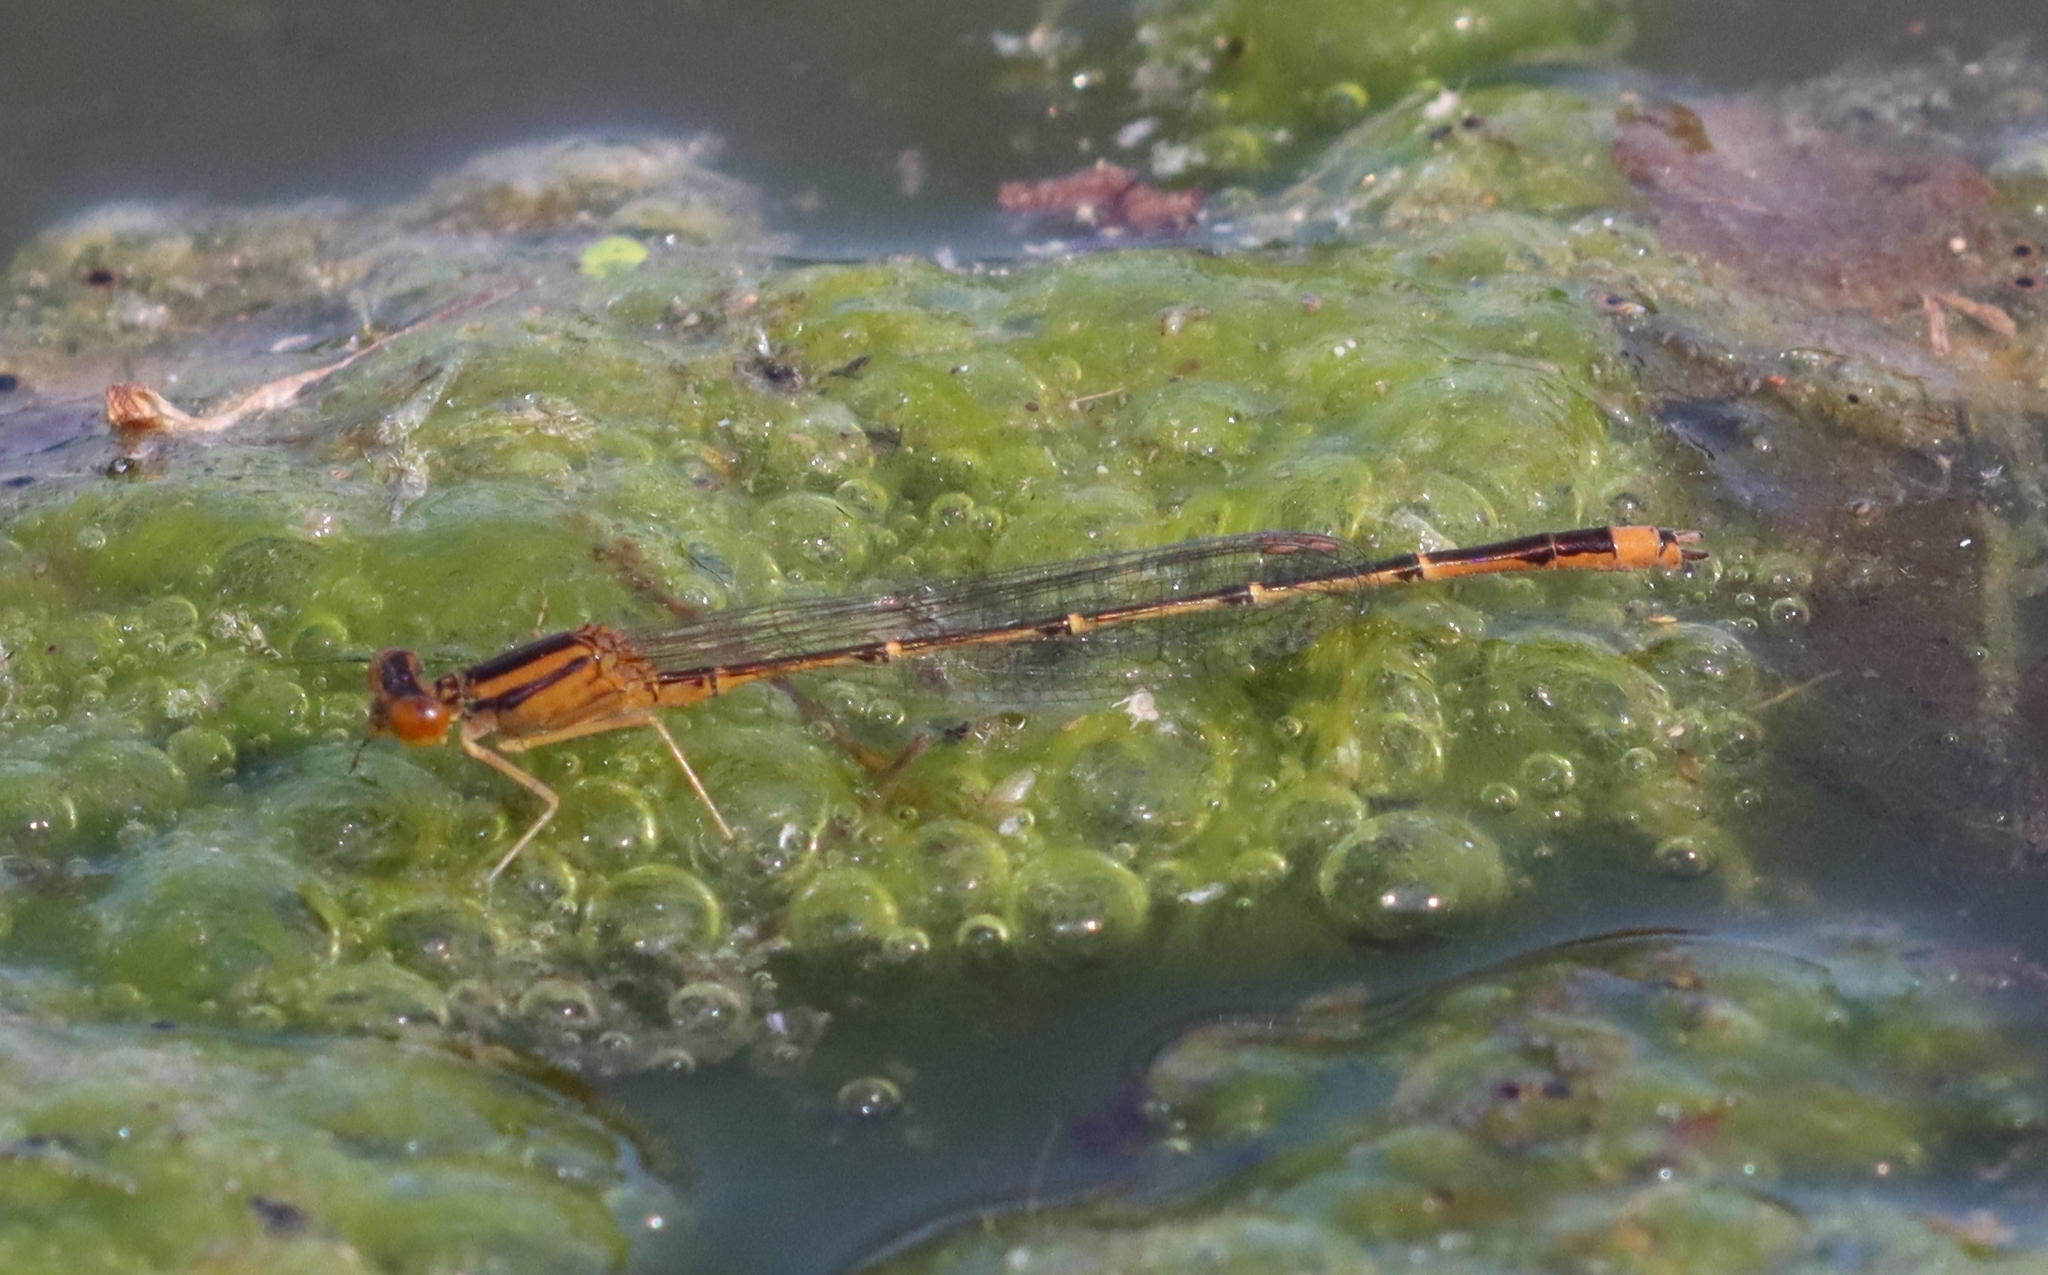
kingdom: Animalia
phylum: Arthropoda
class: Insecta
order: Odonata
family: Coenagrionidae
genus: Enallagma
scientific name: Enallagma signatum
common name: Orange bluet
